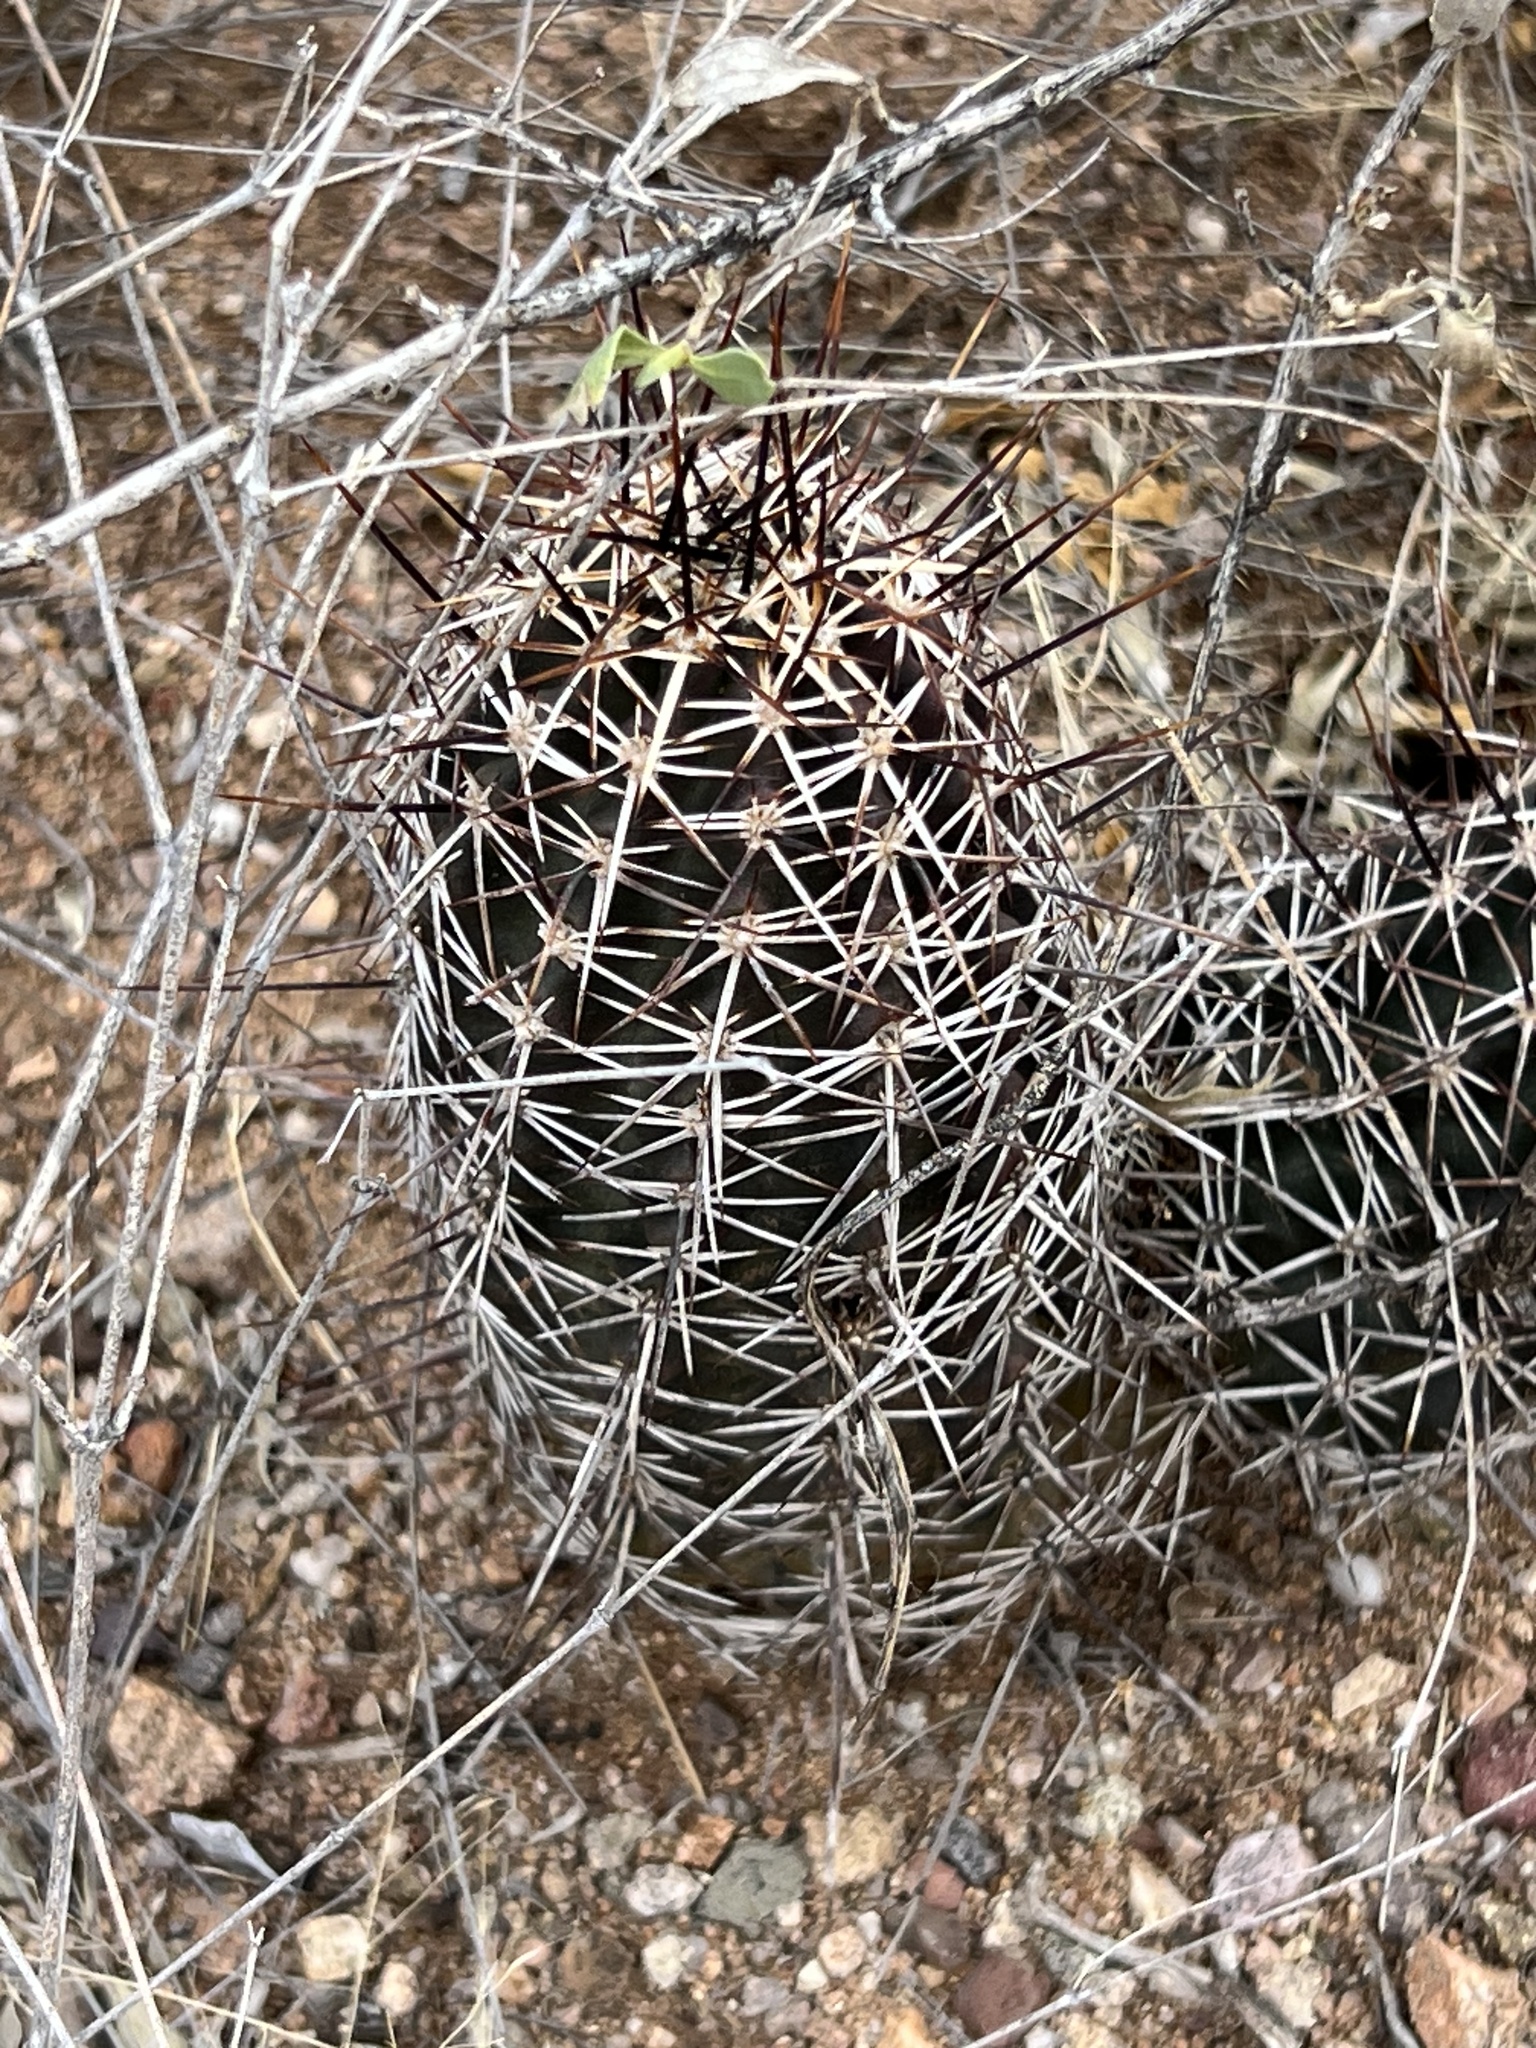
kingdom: Plantae
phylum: Tracheophyta
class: Magnoliopsida
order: Caryophyllales
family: Cactaceae
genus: Echinocereus
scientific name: Echinocereus fendleri
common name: Fendler's hedgehog cactus
